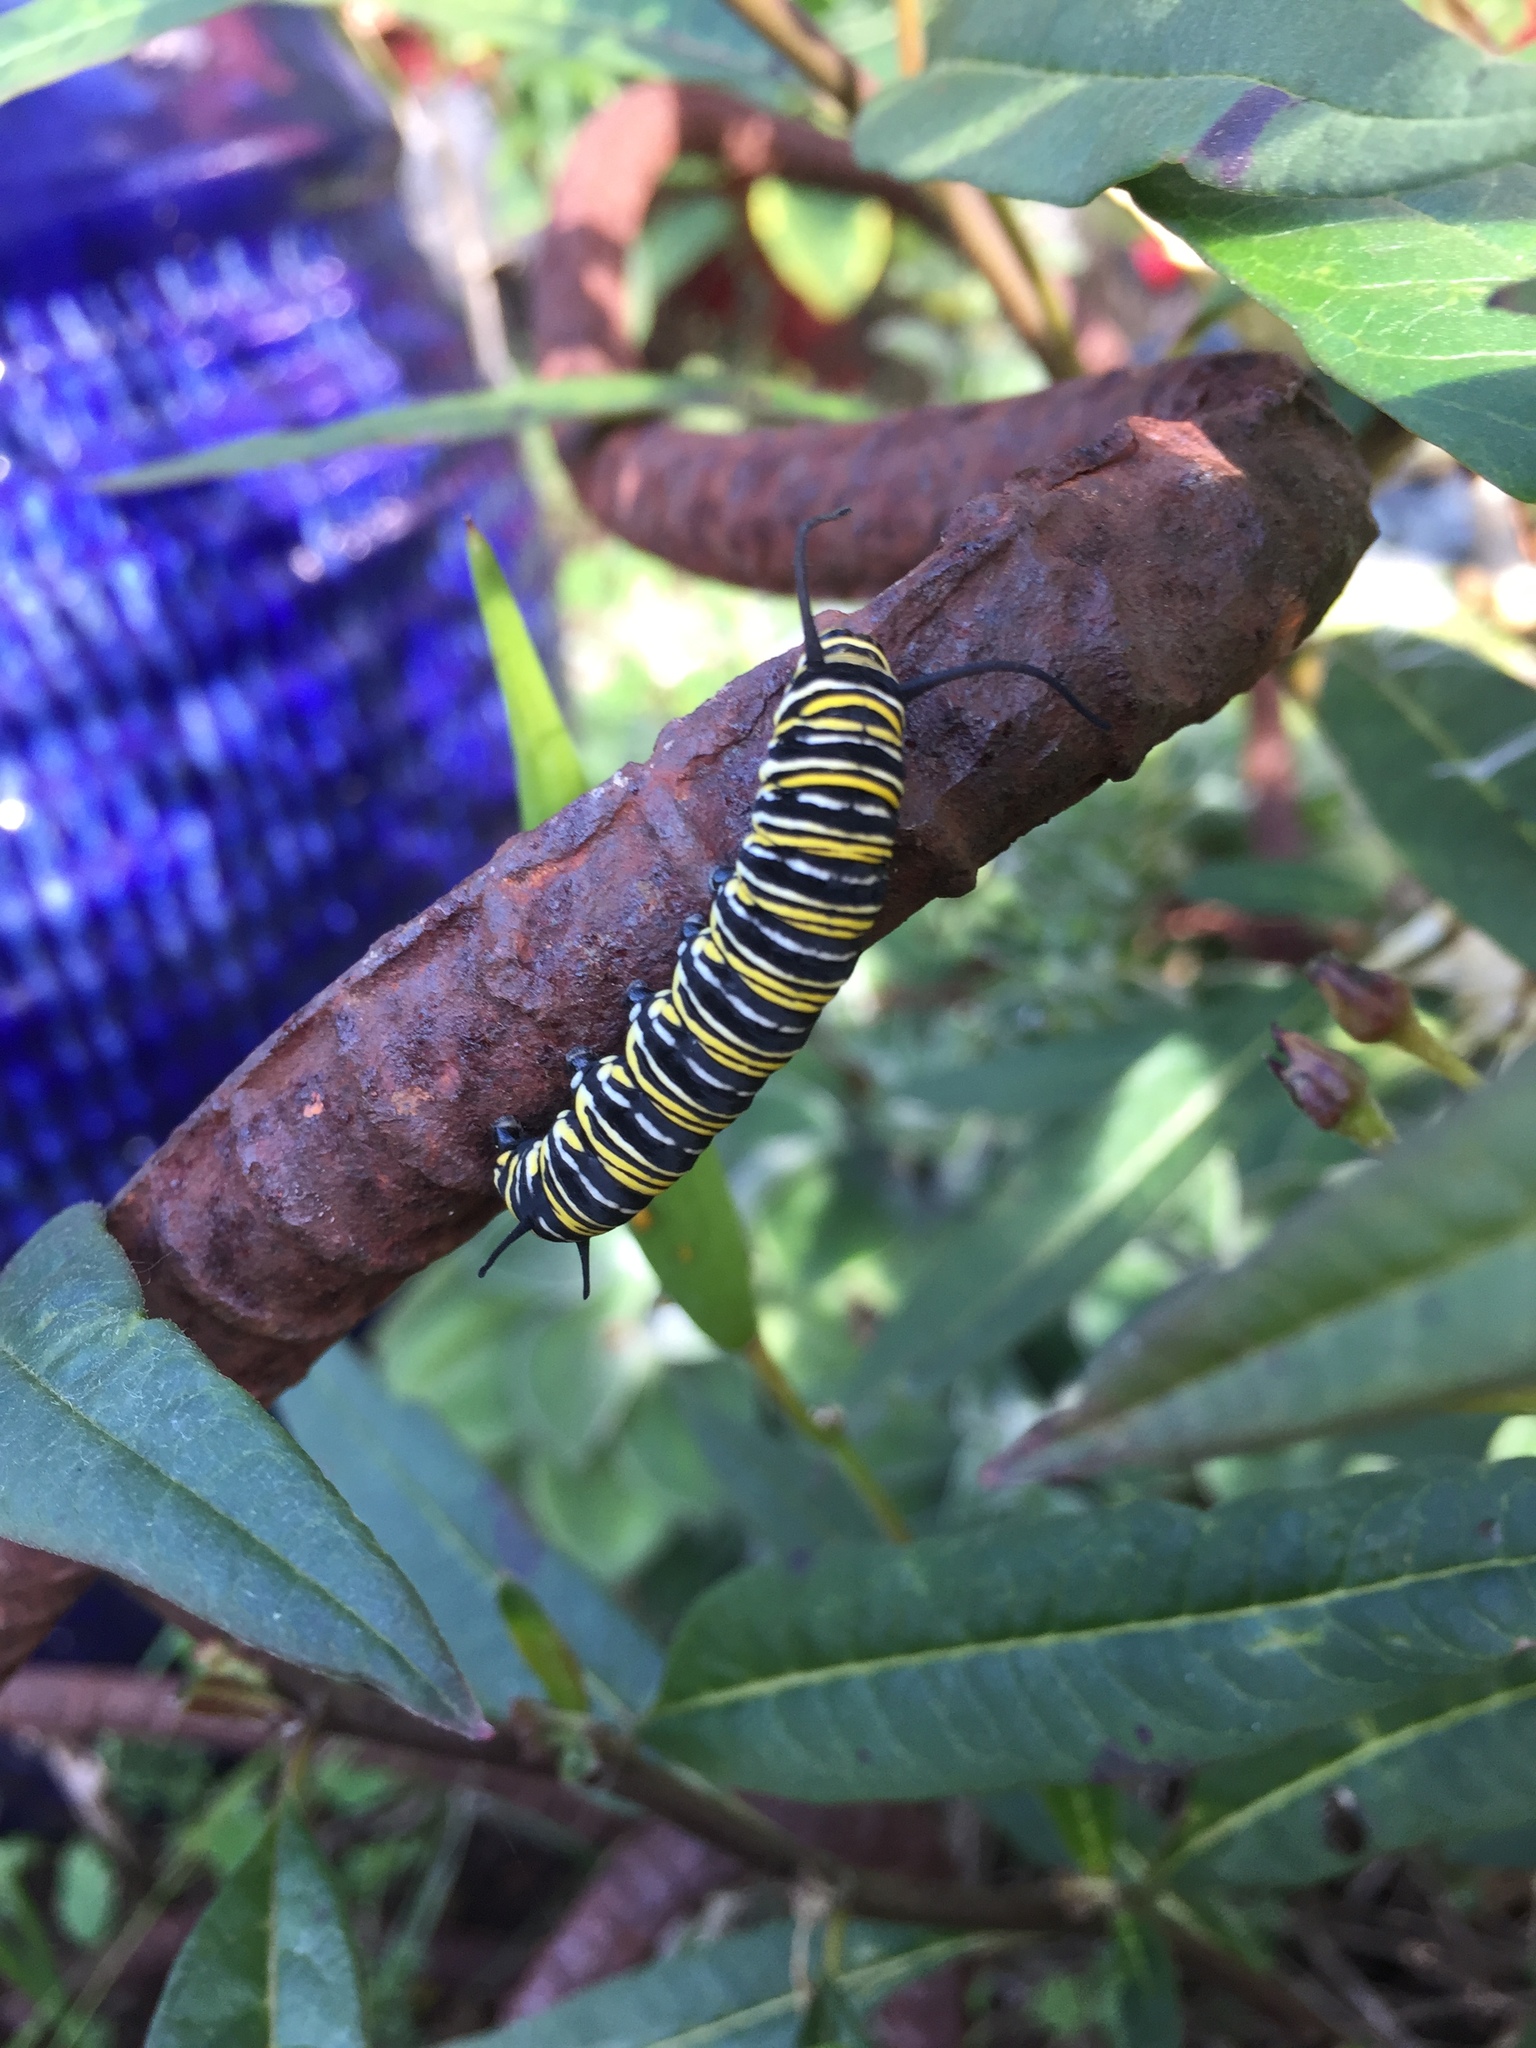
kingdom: Animalia
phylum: Arthropoda
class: Insecta
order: Lepidoptera
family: Nymphalidae
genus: Danaus
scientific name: Danaus plexippus
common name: Monarch
